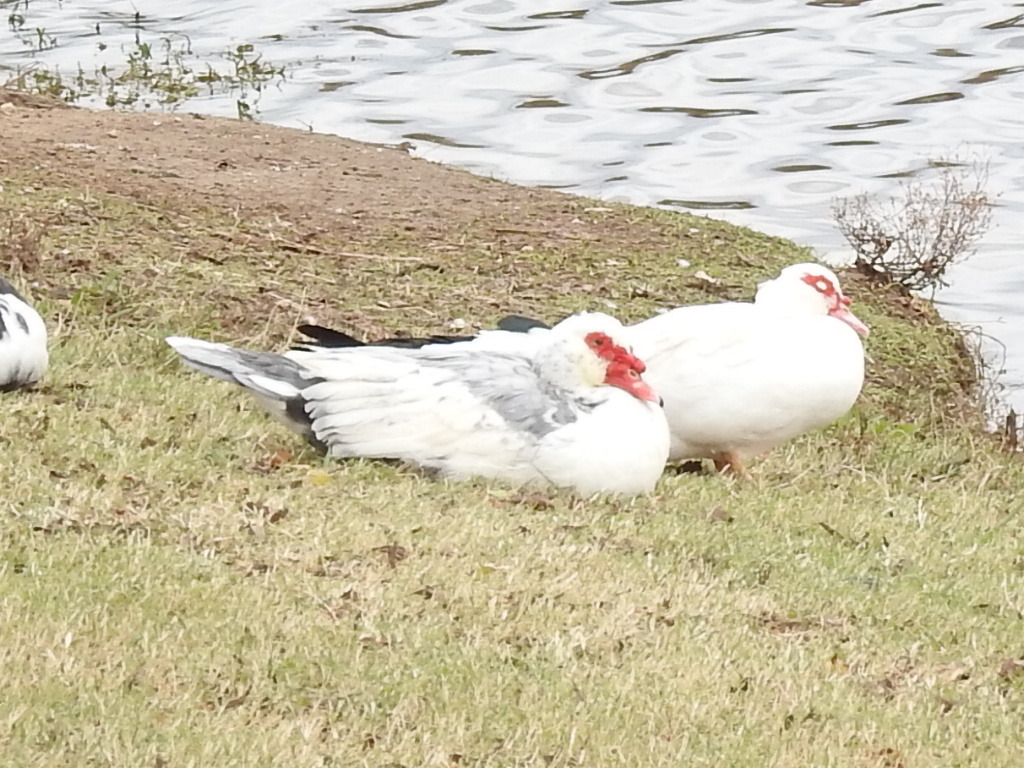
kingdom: Animalia
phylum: Chordata
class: Aves
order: Anseriformes
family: Anatidae
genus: Cairina
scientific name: Cairina moschata
